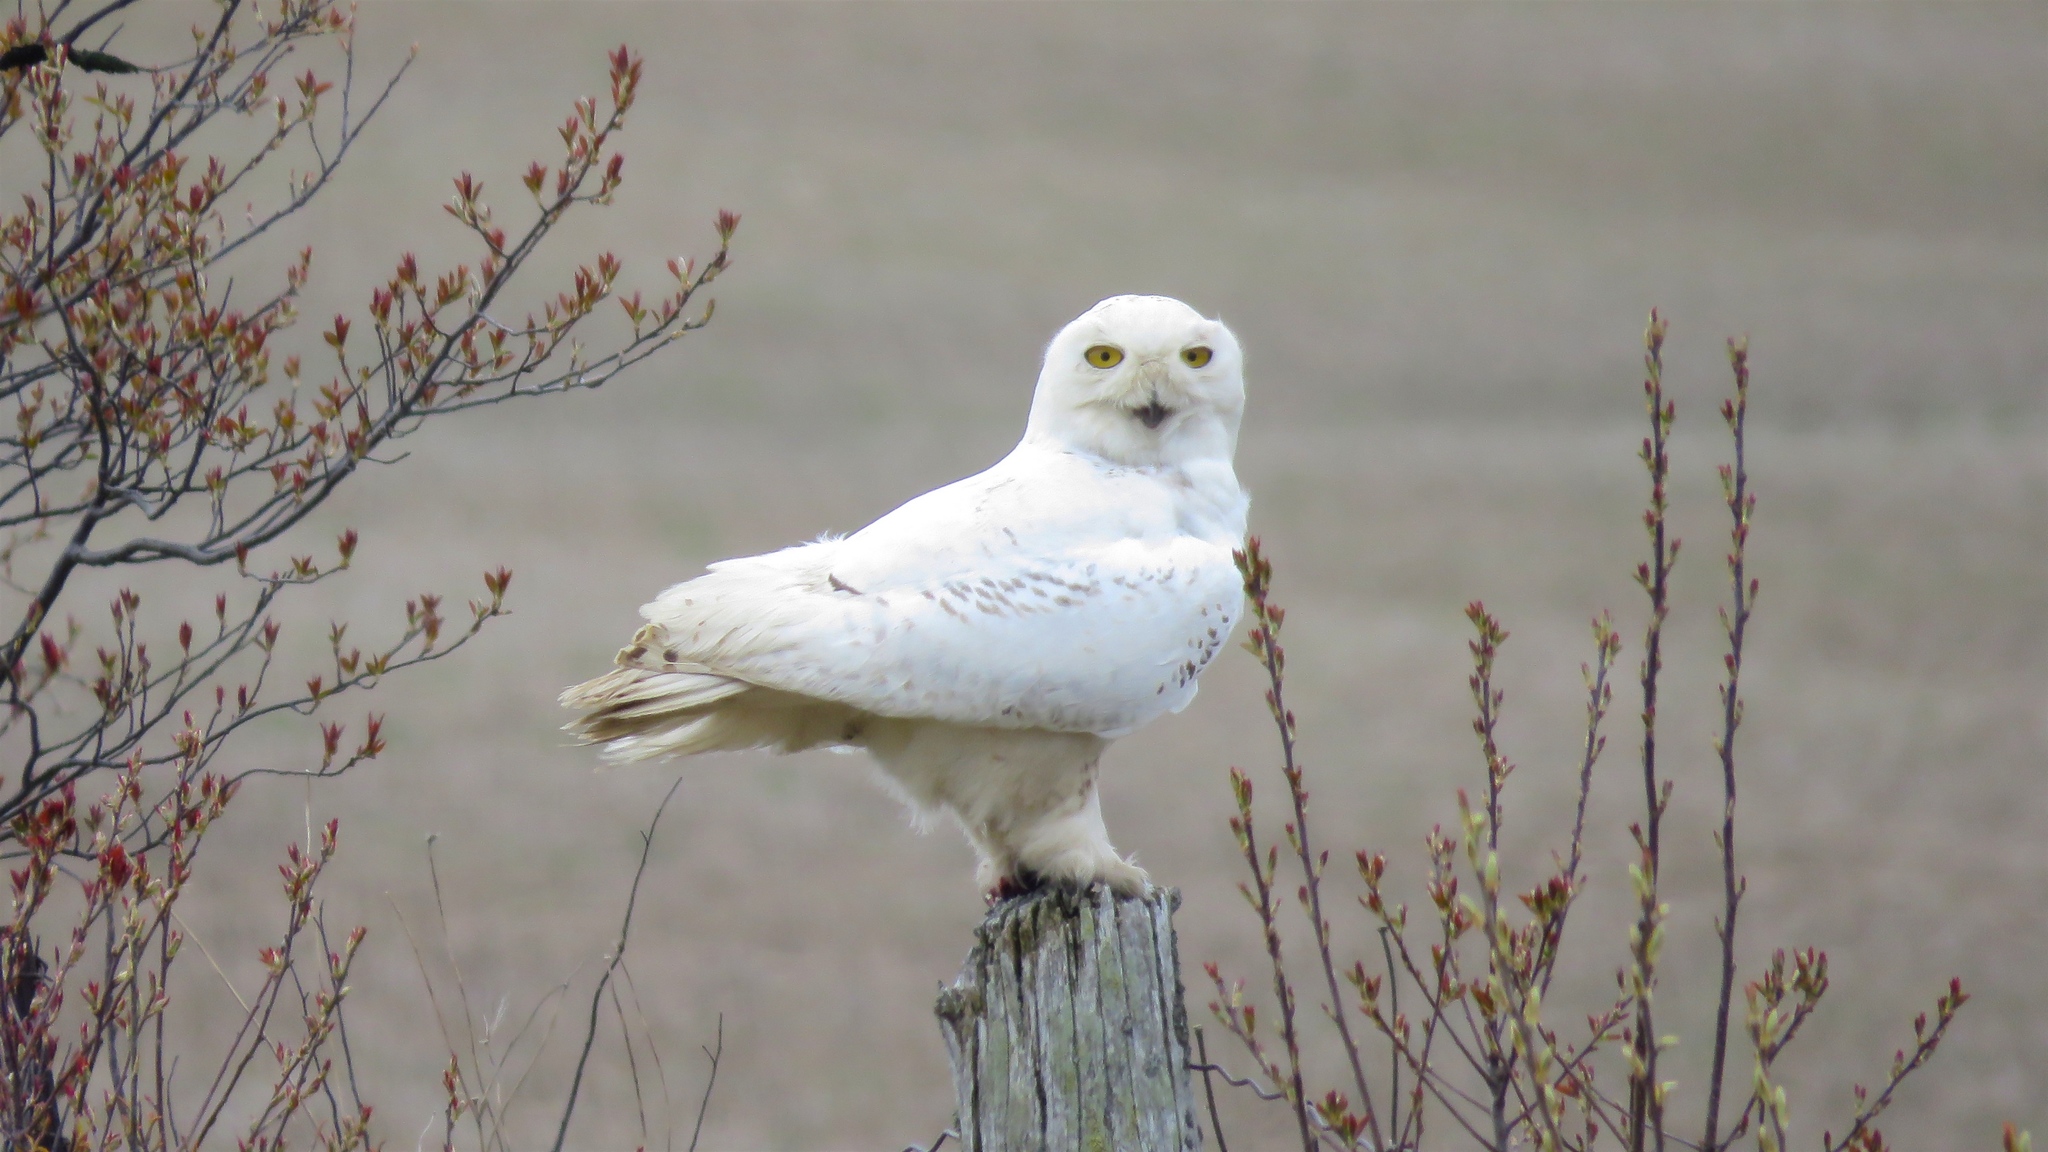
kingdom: Animalia
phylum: Chordata
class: Aves
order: Strigiformes
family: Strigidae
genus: Bubo
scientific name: Bubo scandiacus
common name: Snowy owl
